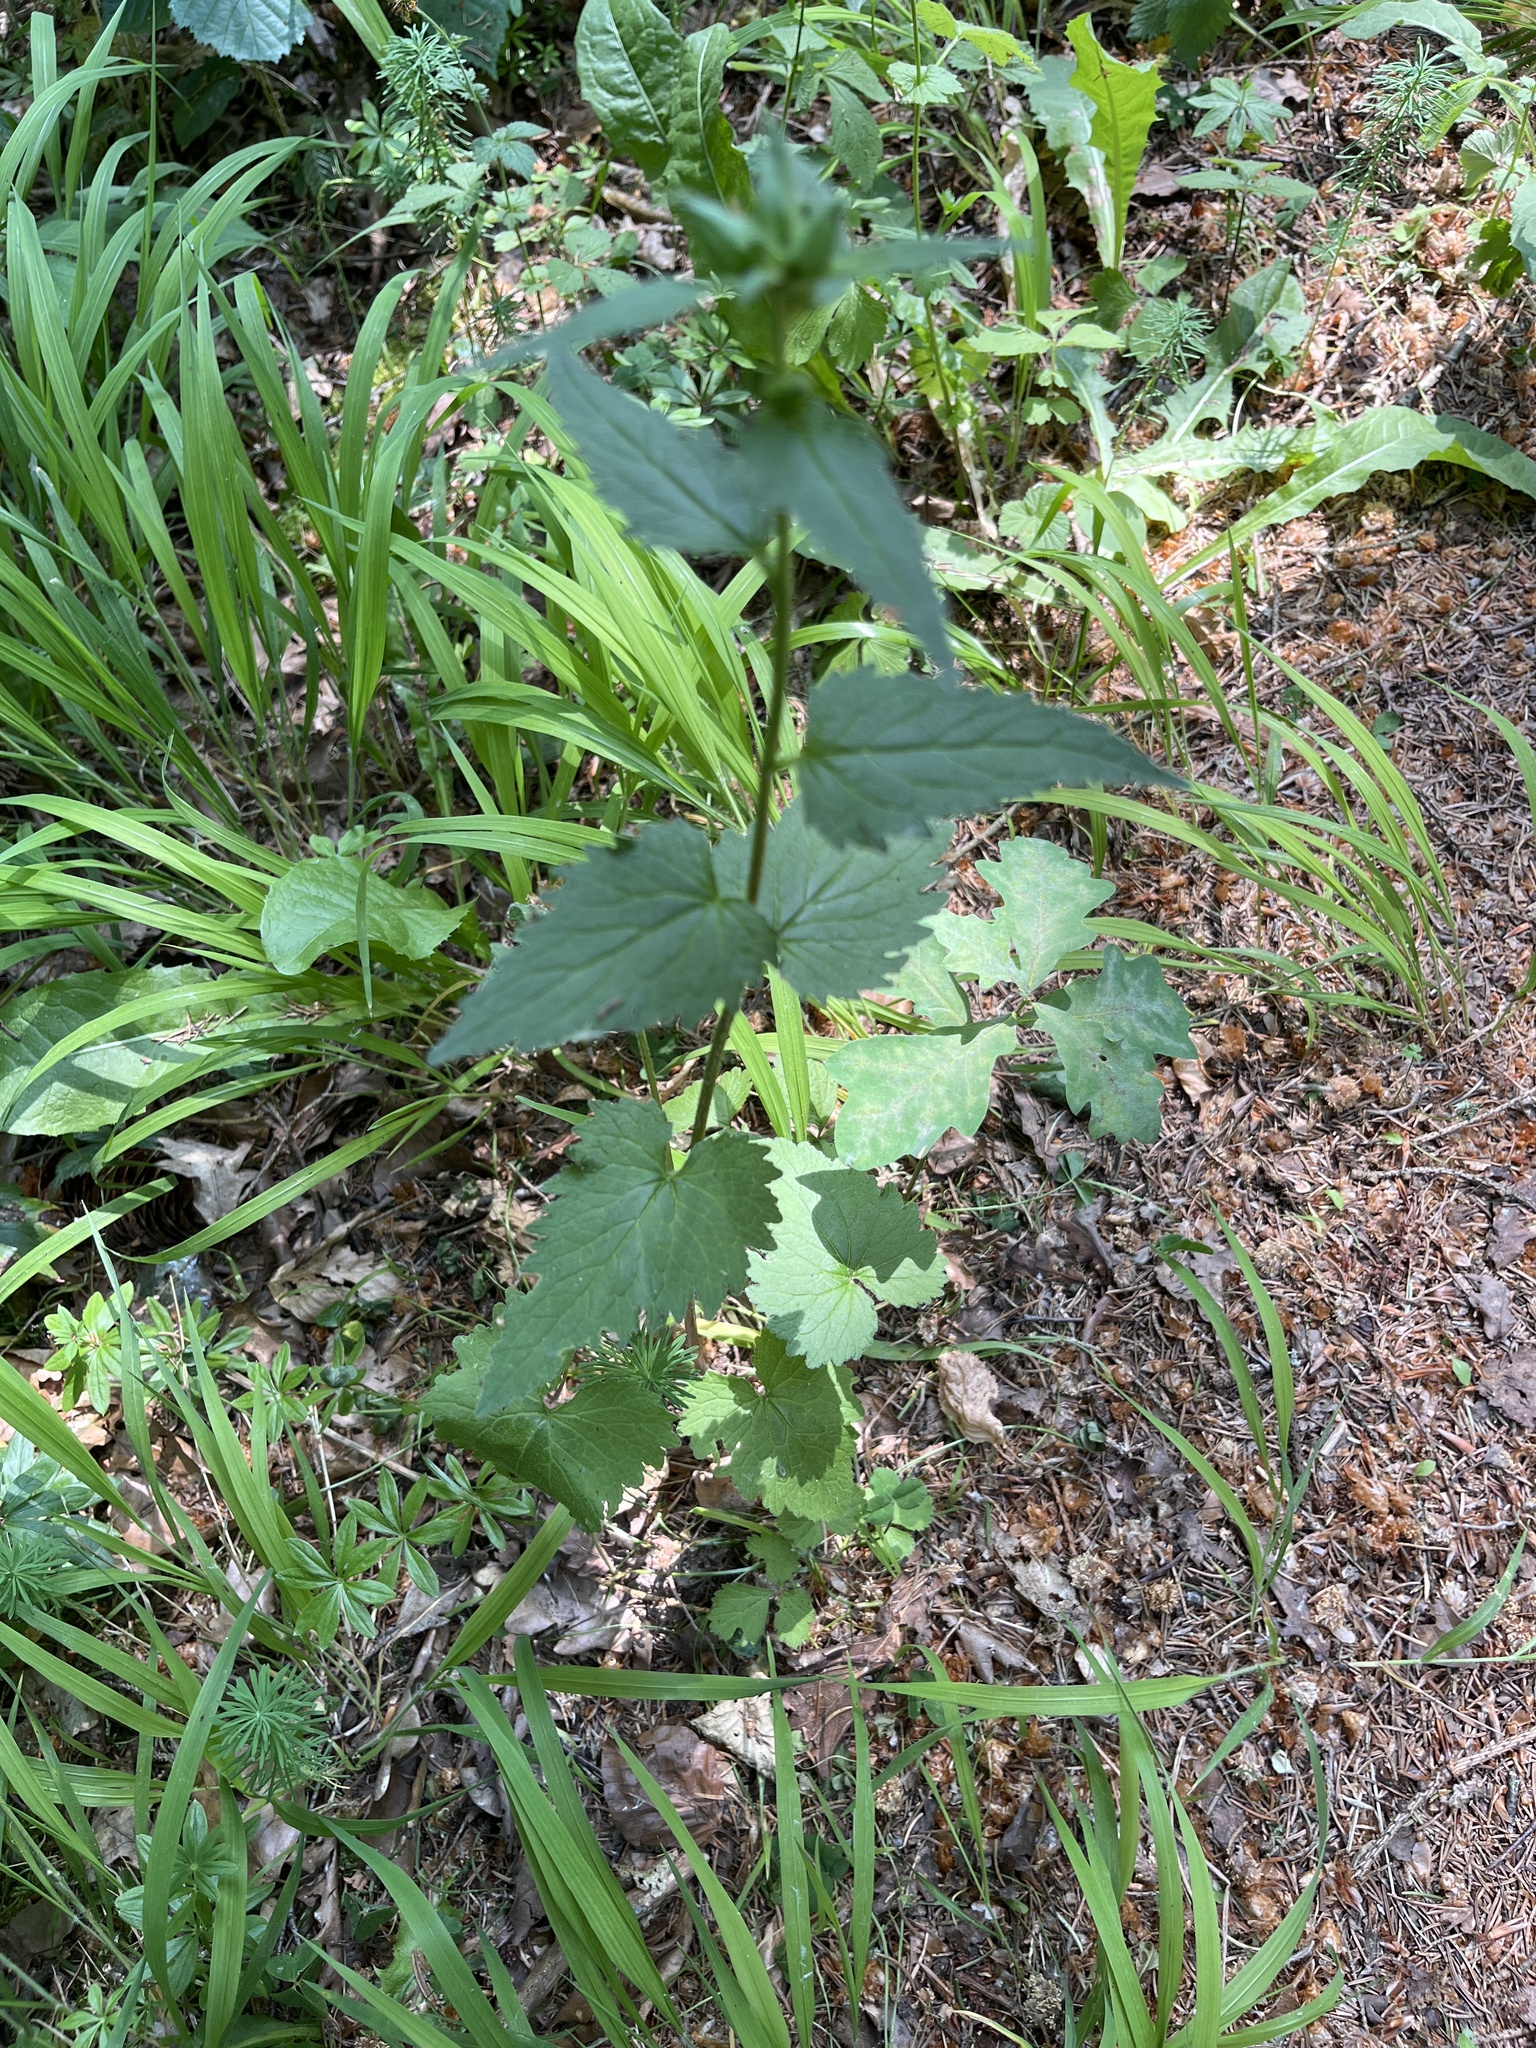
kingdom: Plantae
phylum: Tracheophyta
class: Magnoliopsida
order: Asterales
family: Campanulaceae
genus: Campanula
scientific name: Campanula trachelium
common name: Nettle-leaved bellflower
